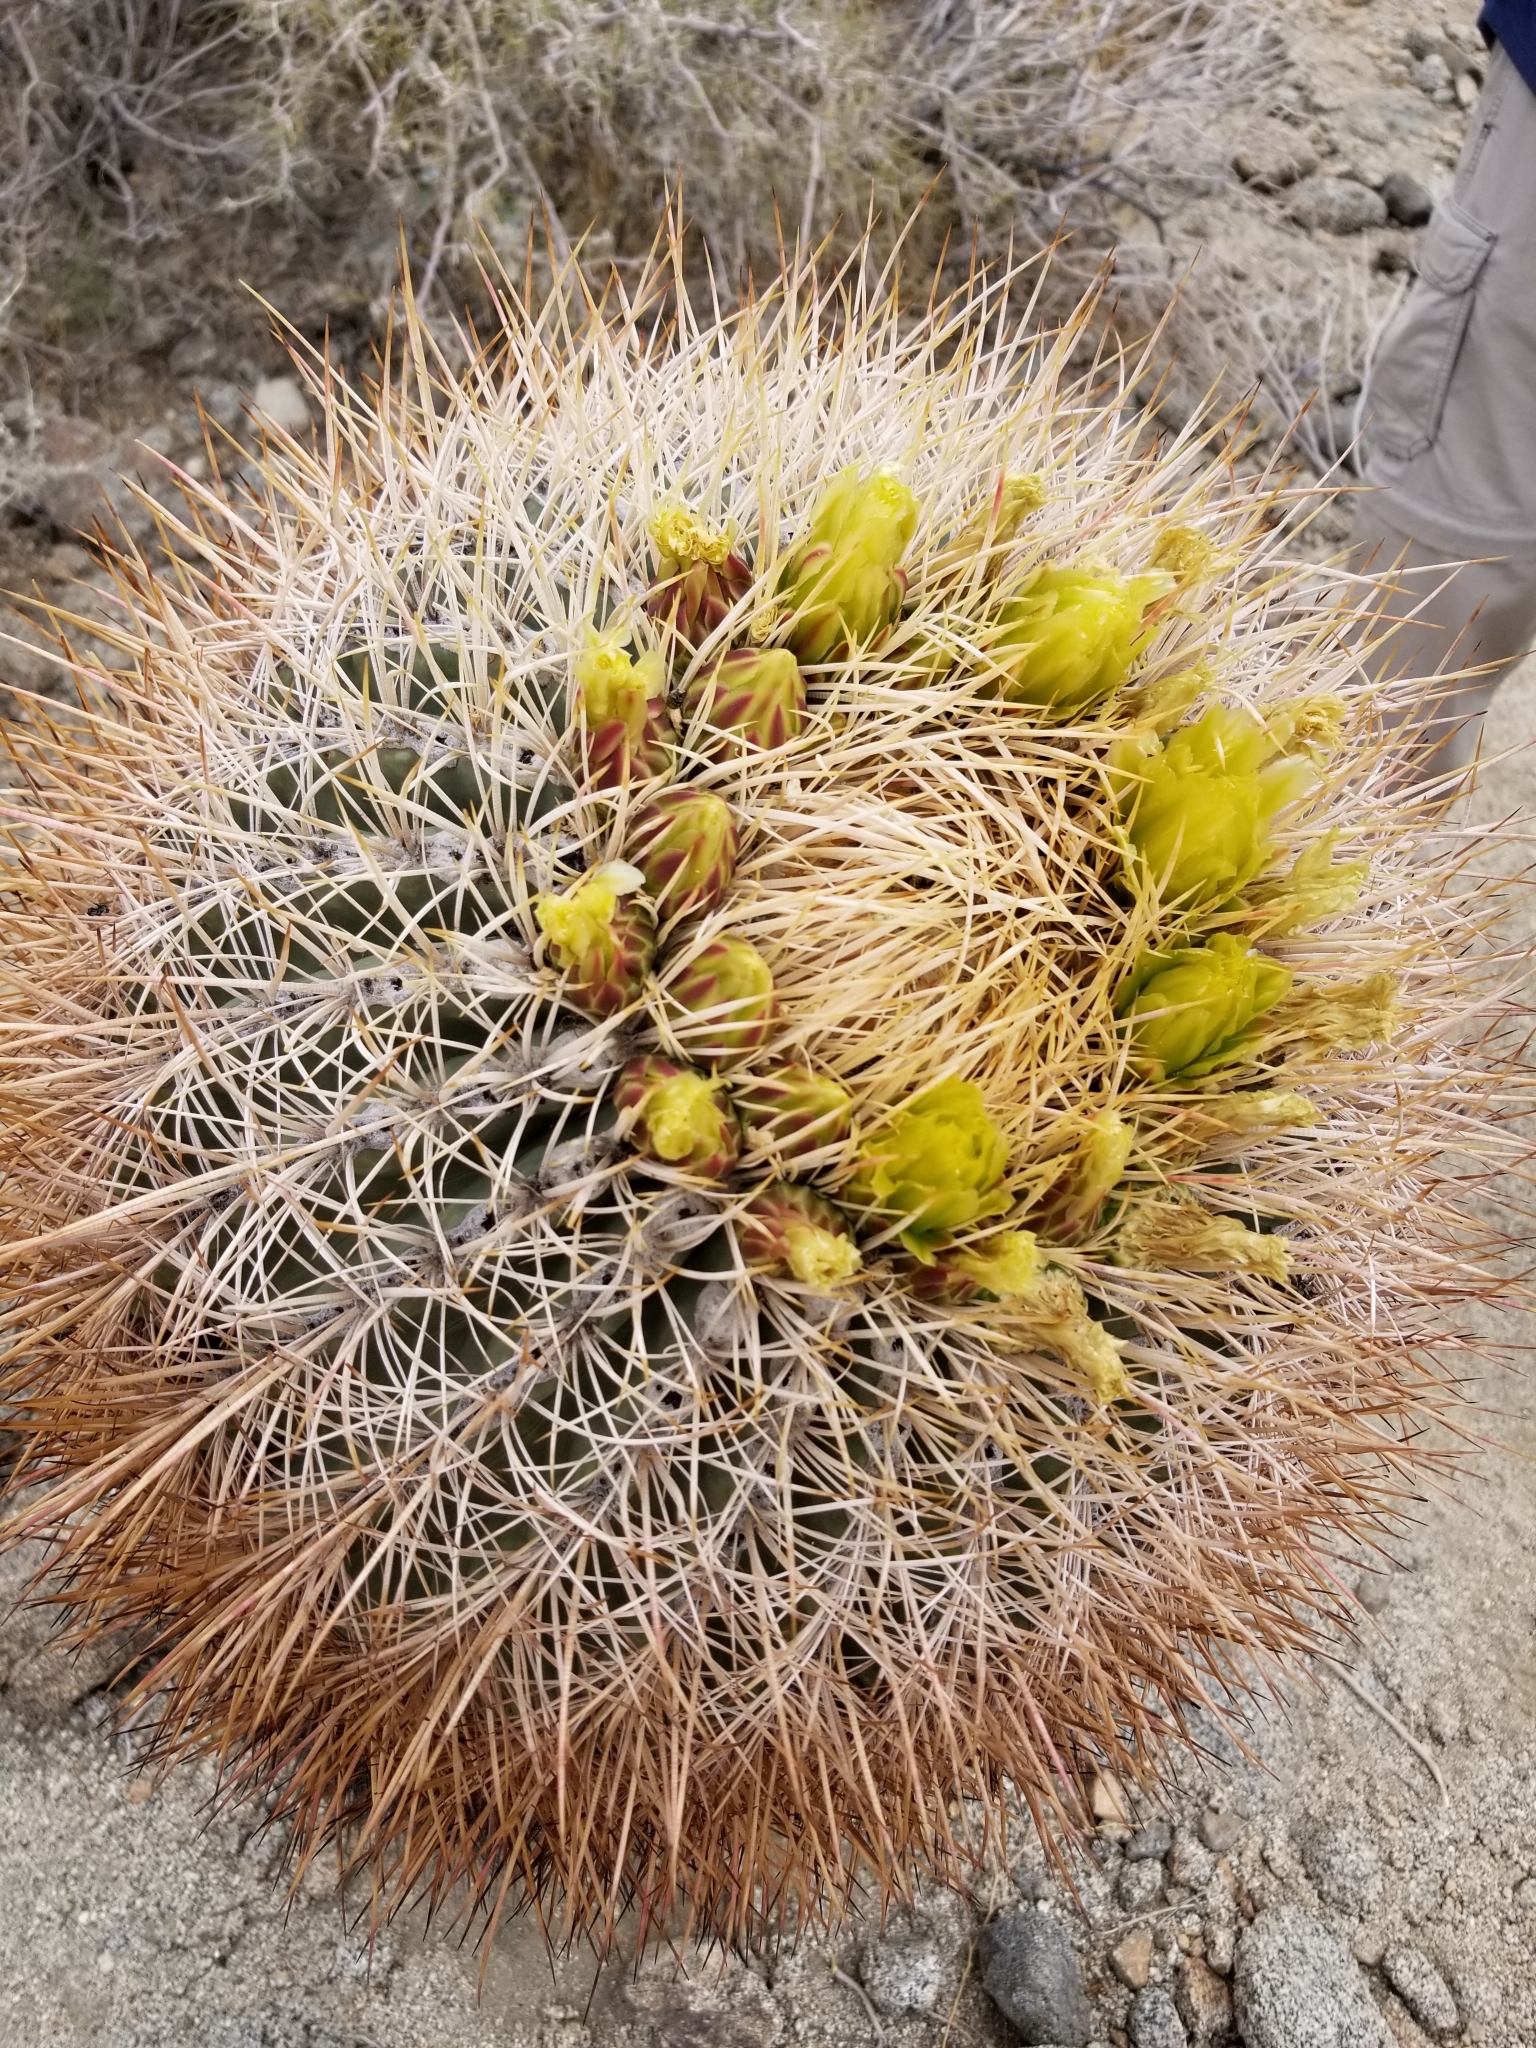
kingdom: Plantae
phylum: Tracheophyta
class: Magnoliopsida
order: Caryophyllales
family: Cactaceae
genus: Ferocactus
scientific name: Ferocactus cylindraceus
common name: California barrel cactus
